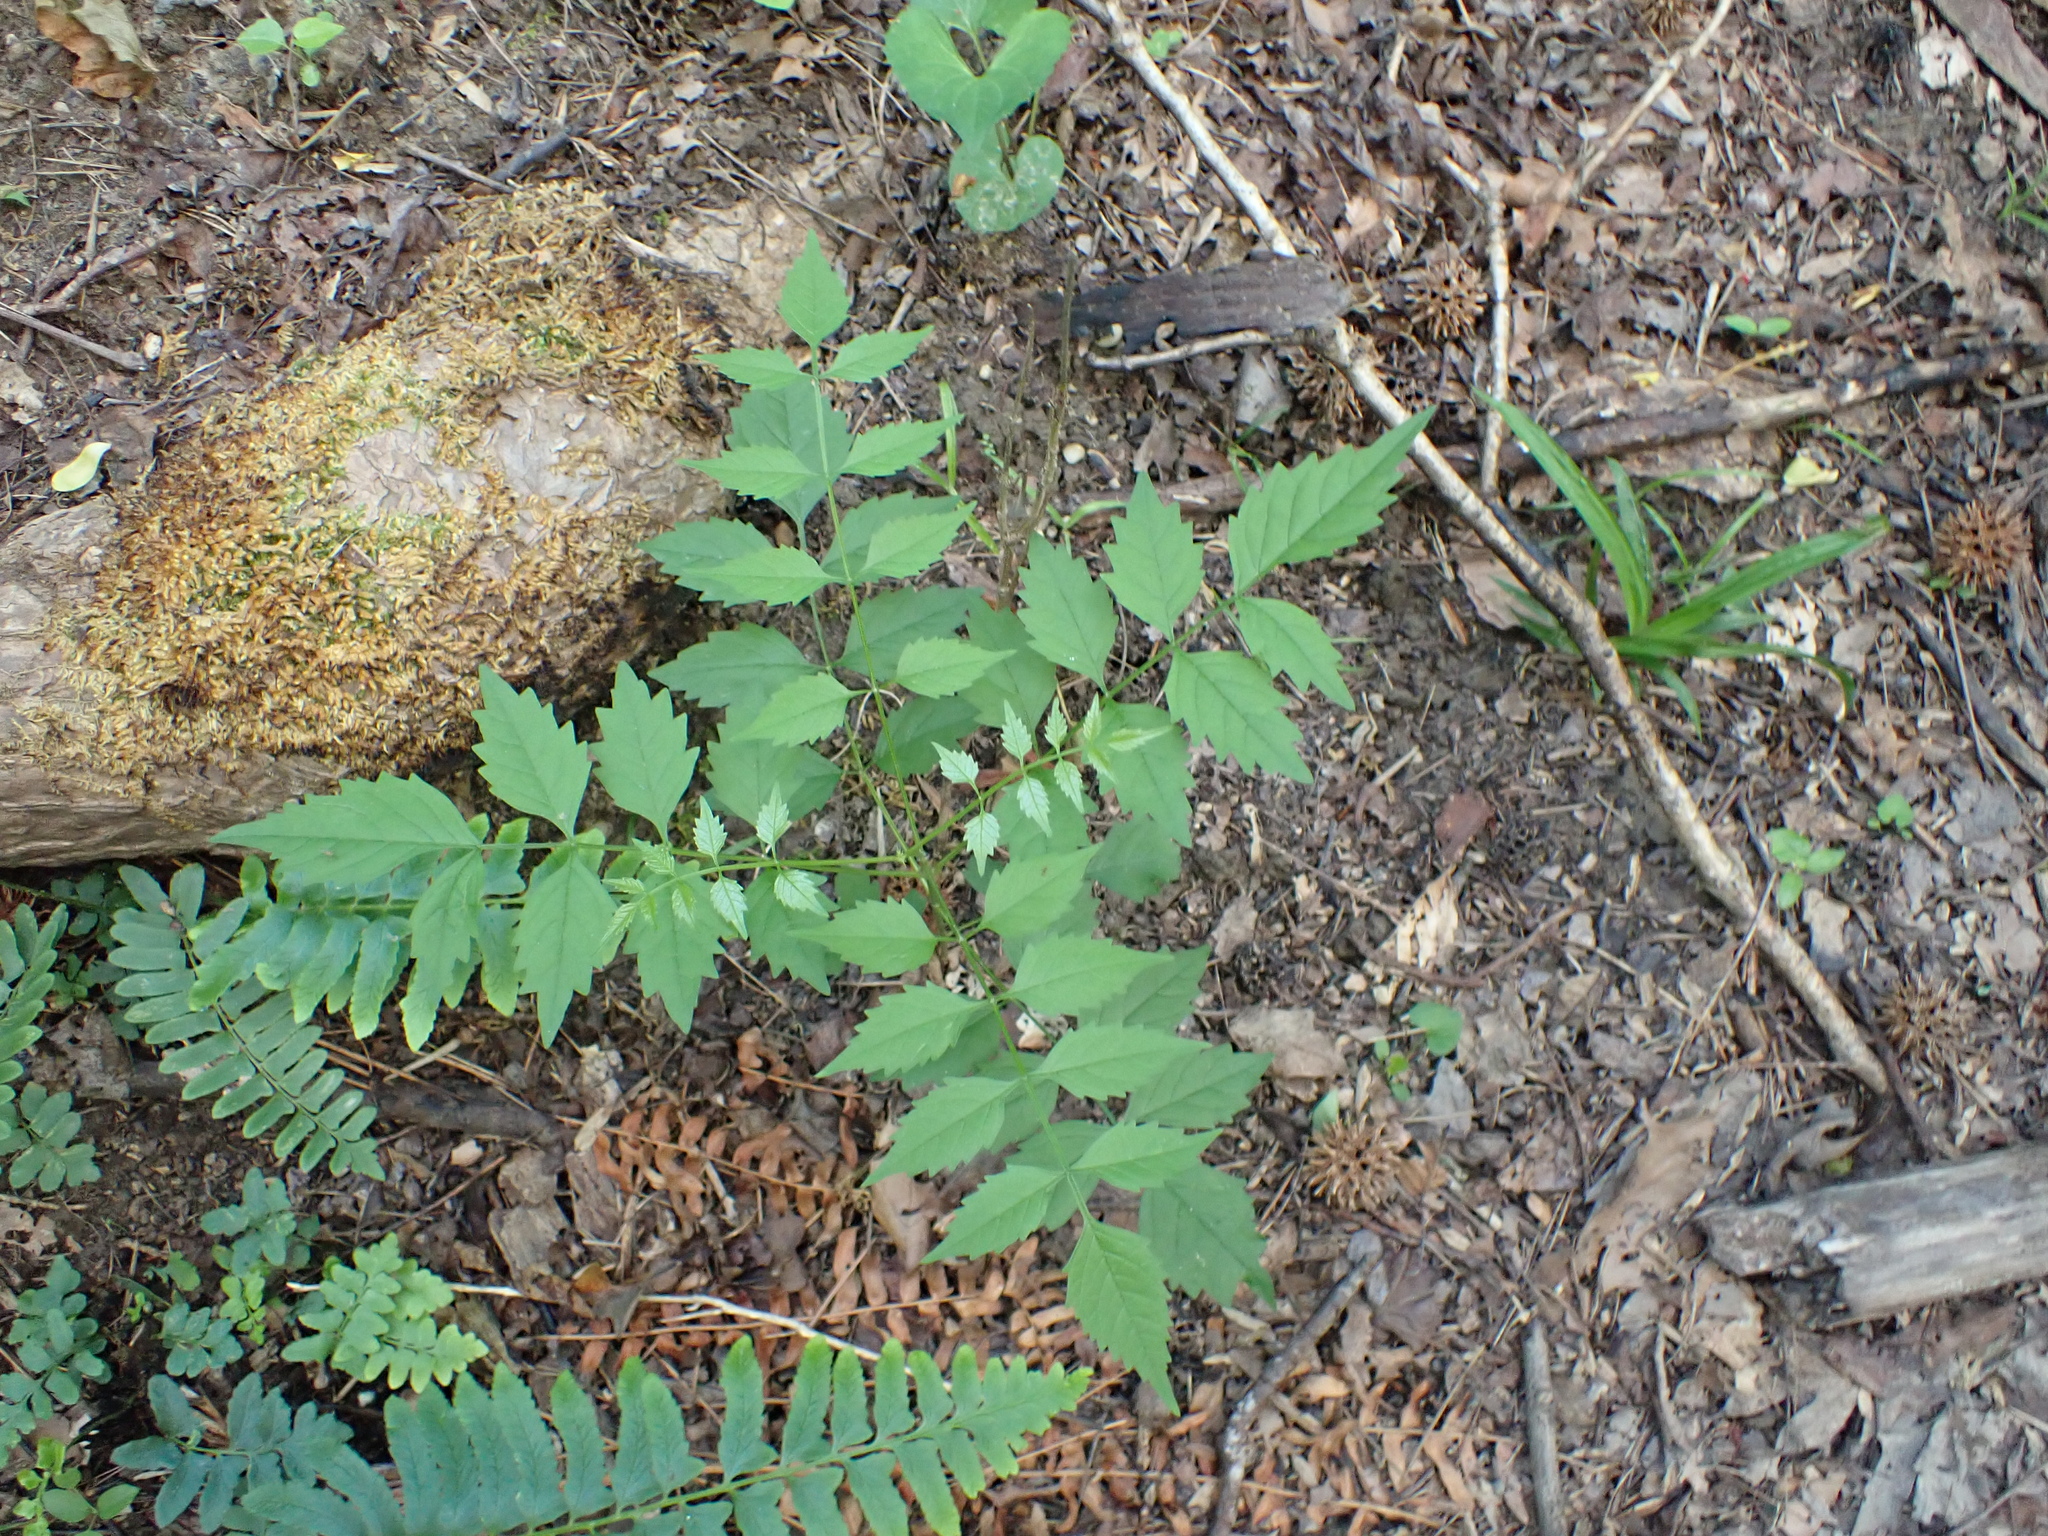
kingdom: Plantae
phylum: Tracheophyta
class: Magnoliopsida
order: Lamiales
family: Bignoniaceae
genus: Campsis
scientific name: Campsis radicans
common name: Trumpet-creeper
